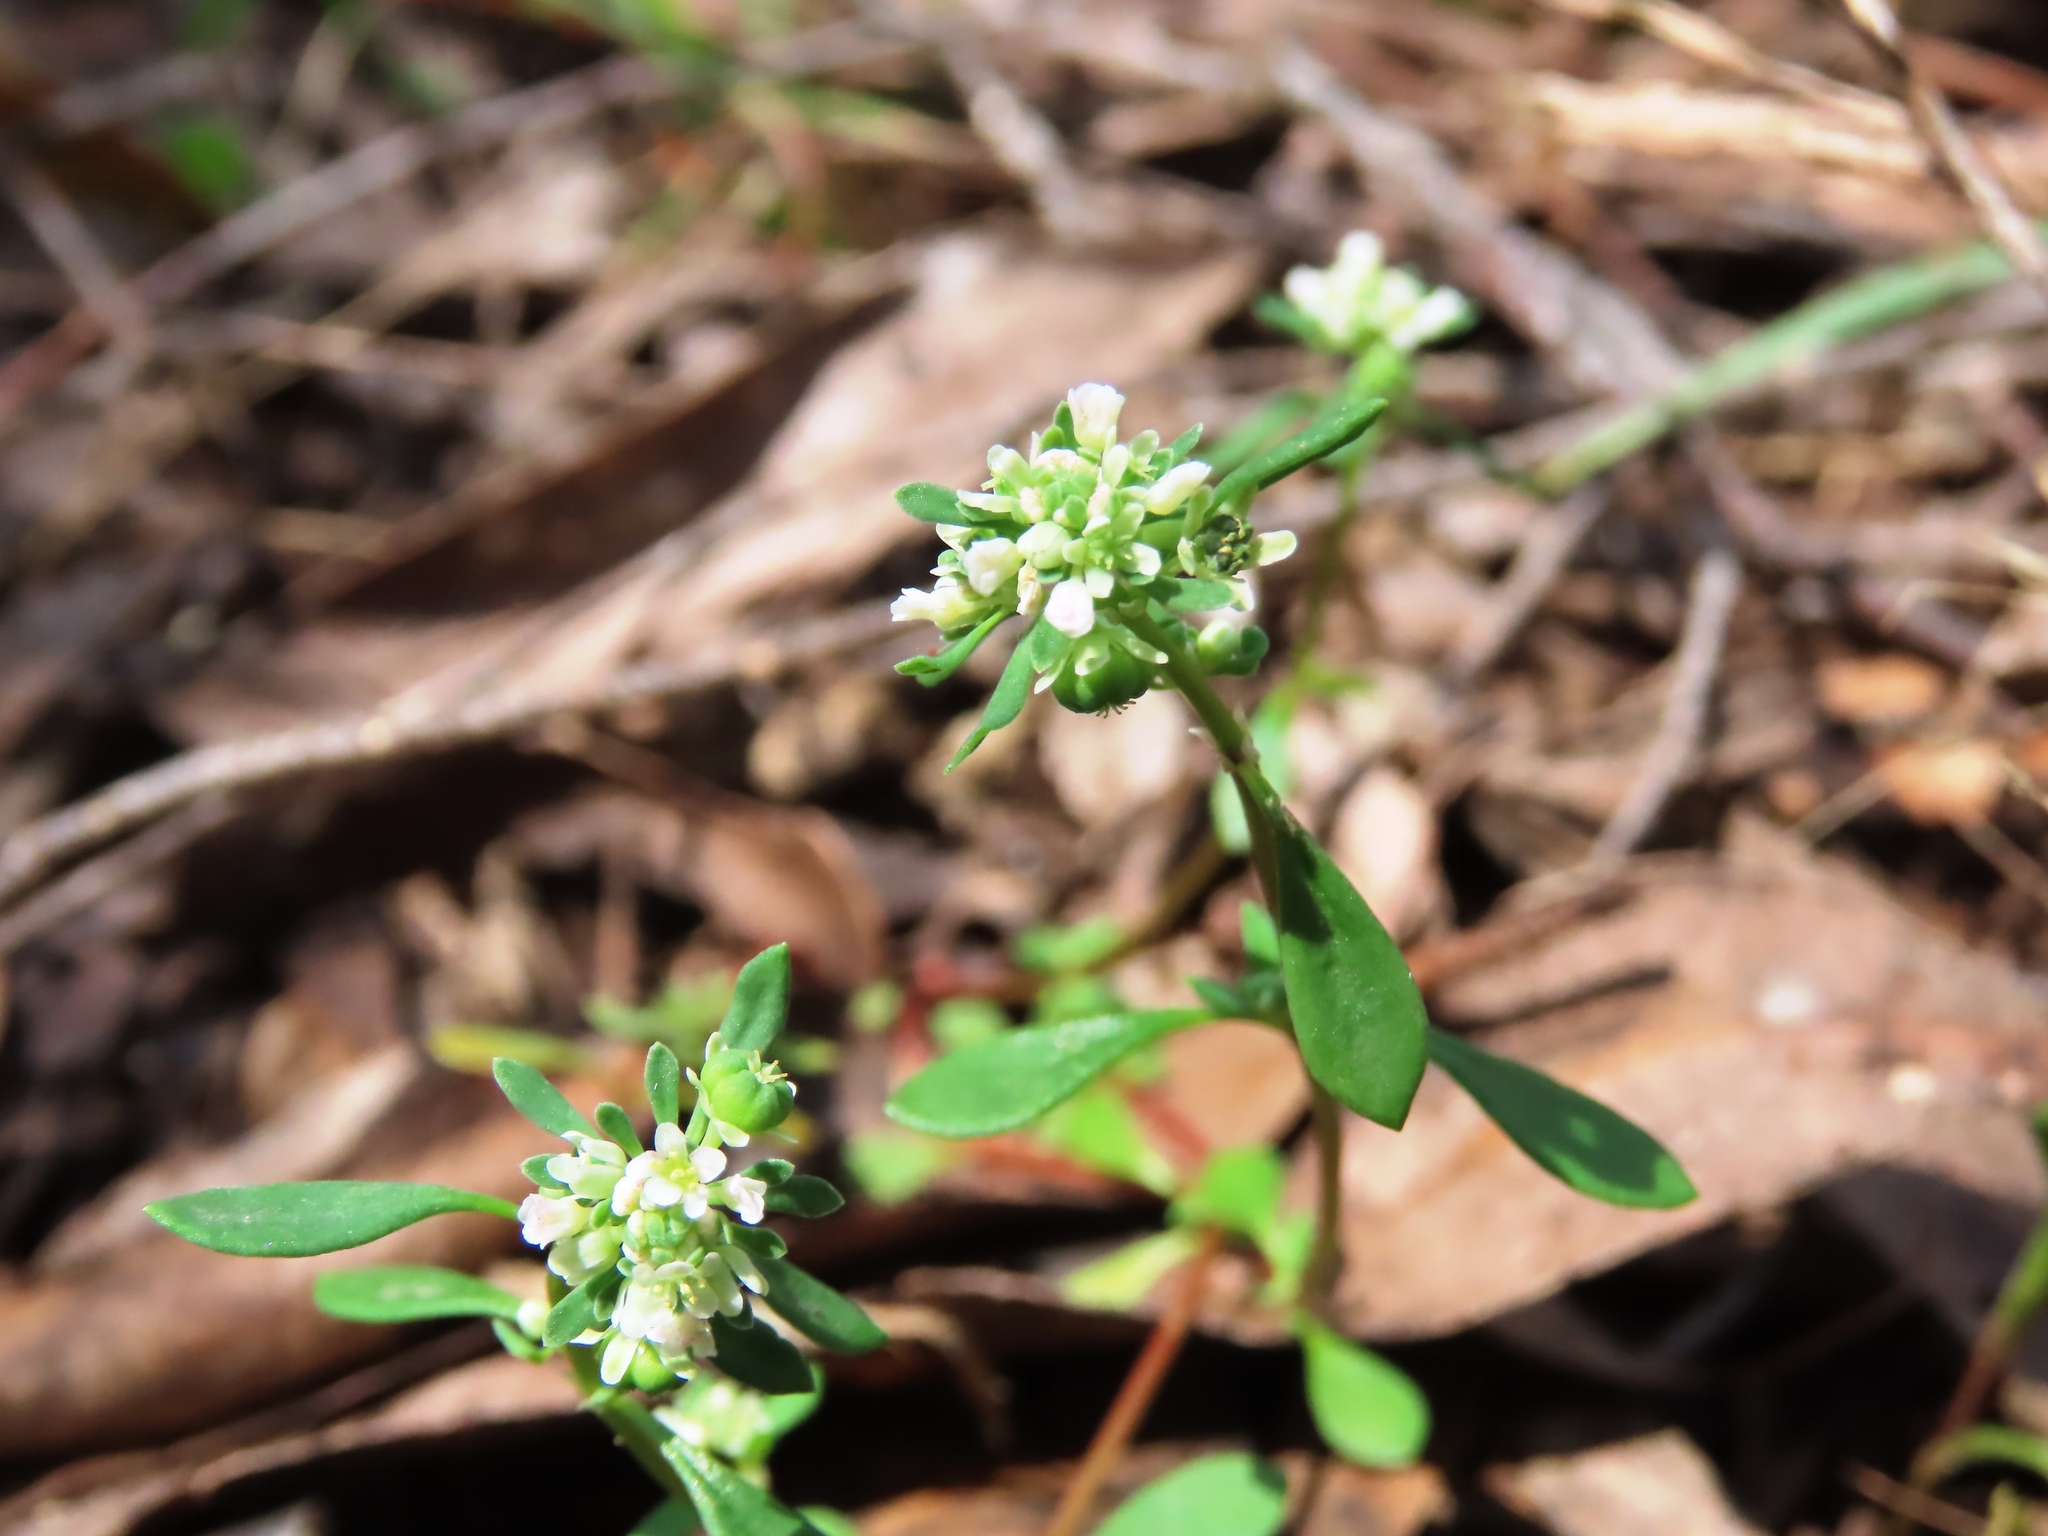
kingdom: Plantae
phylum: Tracheophyta
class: Magnoliopsida
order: Malpighiales
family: Phyllanthaceae
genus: Poranthera
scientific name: Poranthera microphylla
